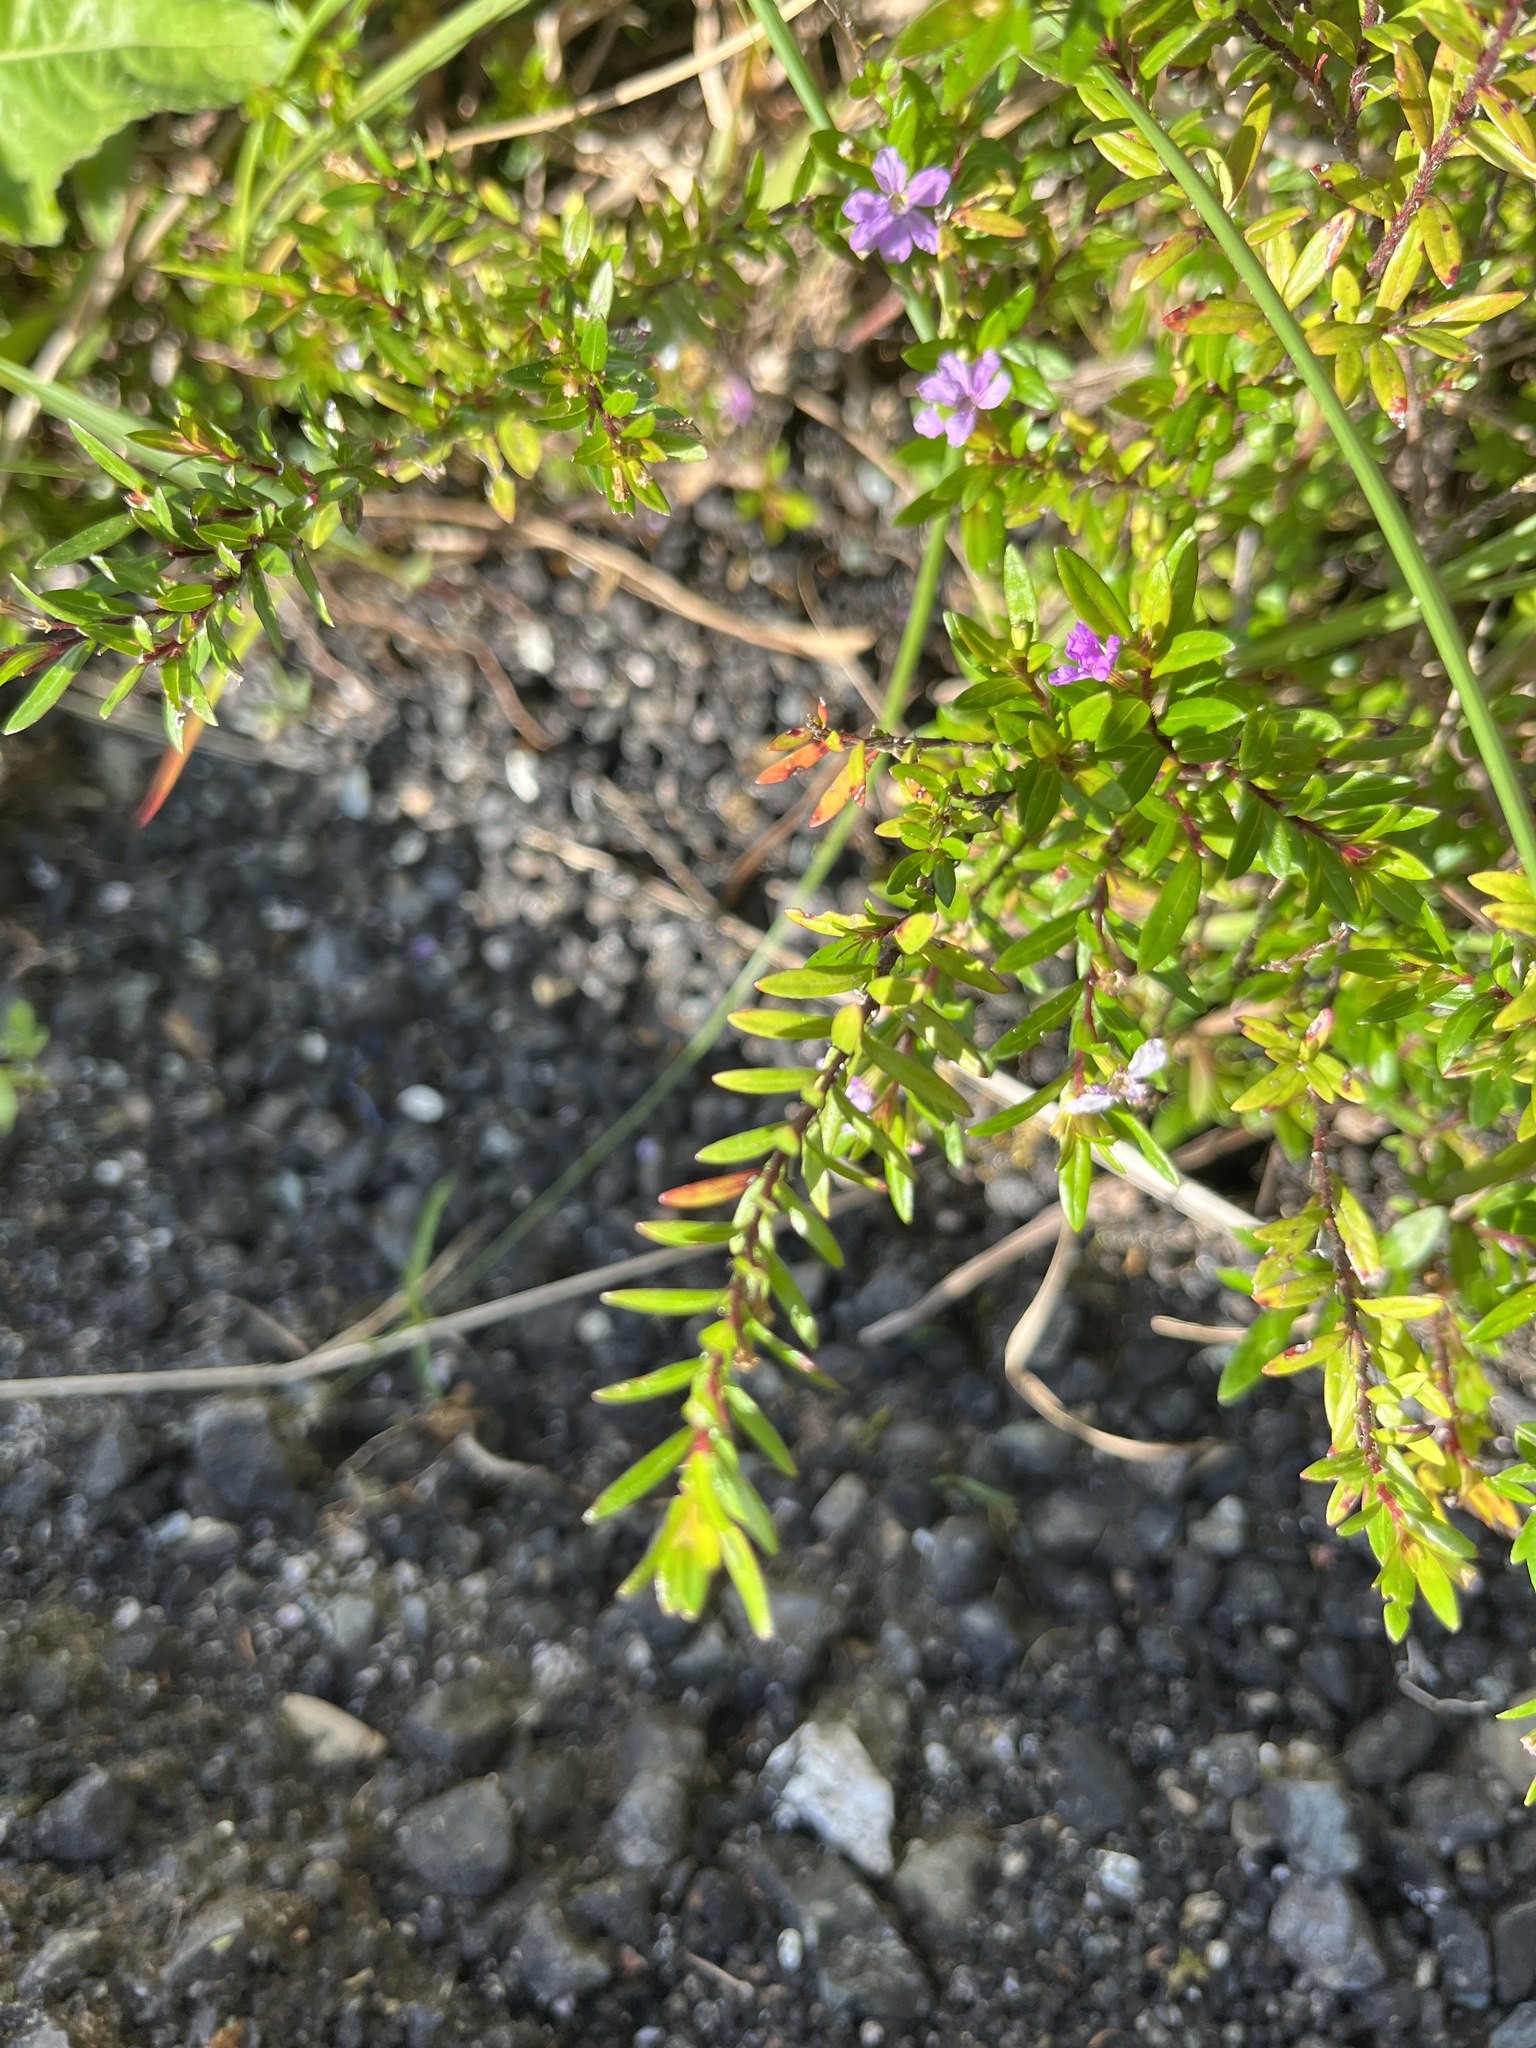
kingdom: Plantae
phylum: Tracheophyta
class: Magnoliopsida
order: Myrtales
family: Lythraceae
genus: Cuphea
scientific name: Cuphea hyssopifolia
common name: False heather
